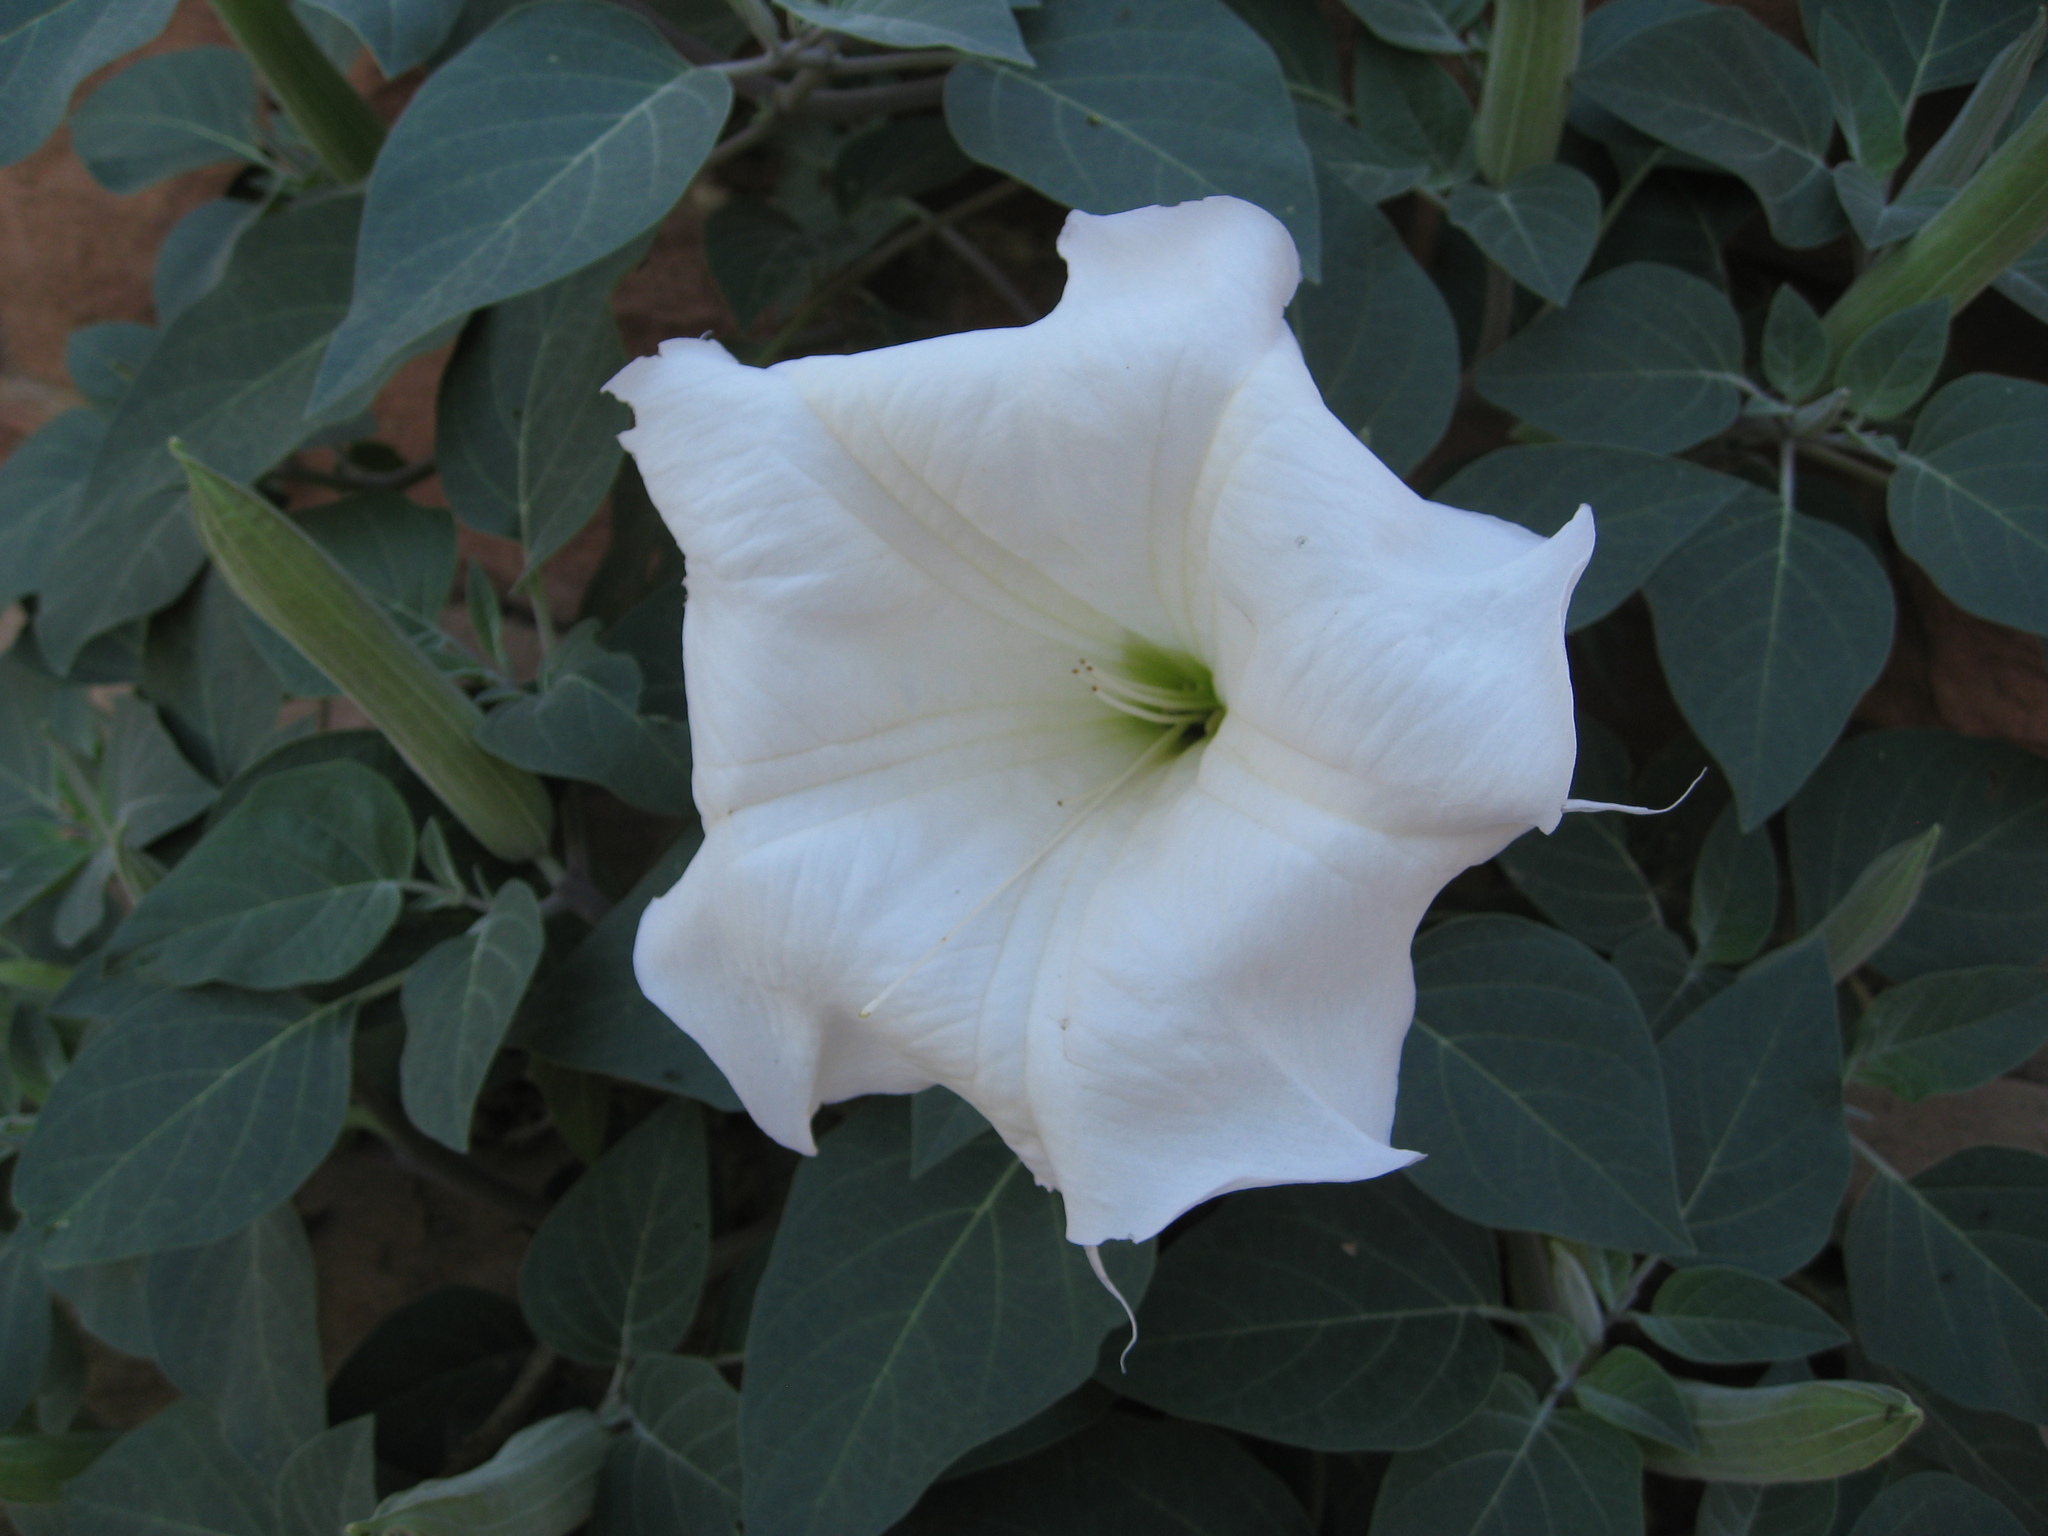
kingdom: Plantae
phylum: Tracheophyta
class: Magnoliopsida
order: Solanales
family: Solanaceae
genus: Datura
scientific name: Datura wrightii
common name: Sacred thorn-apple
